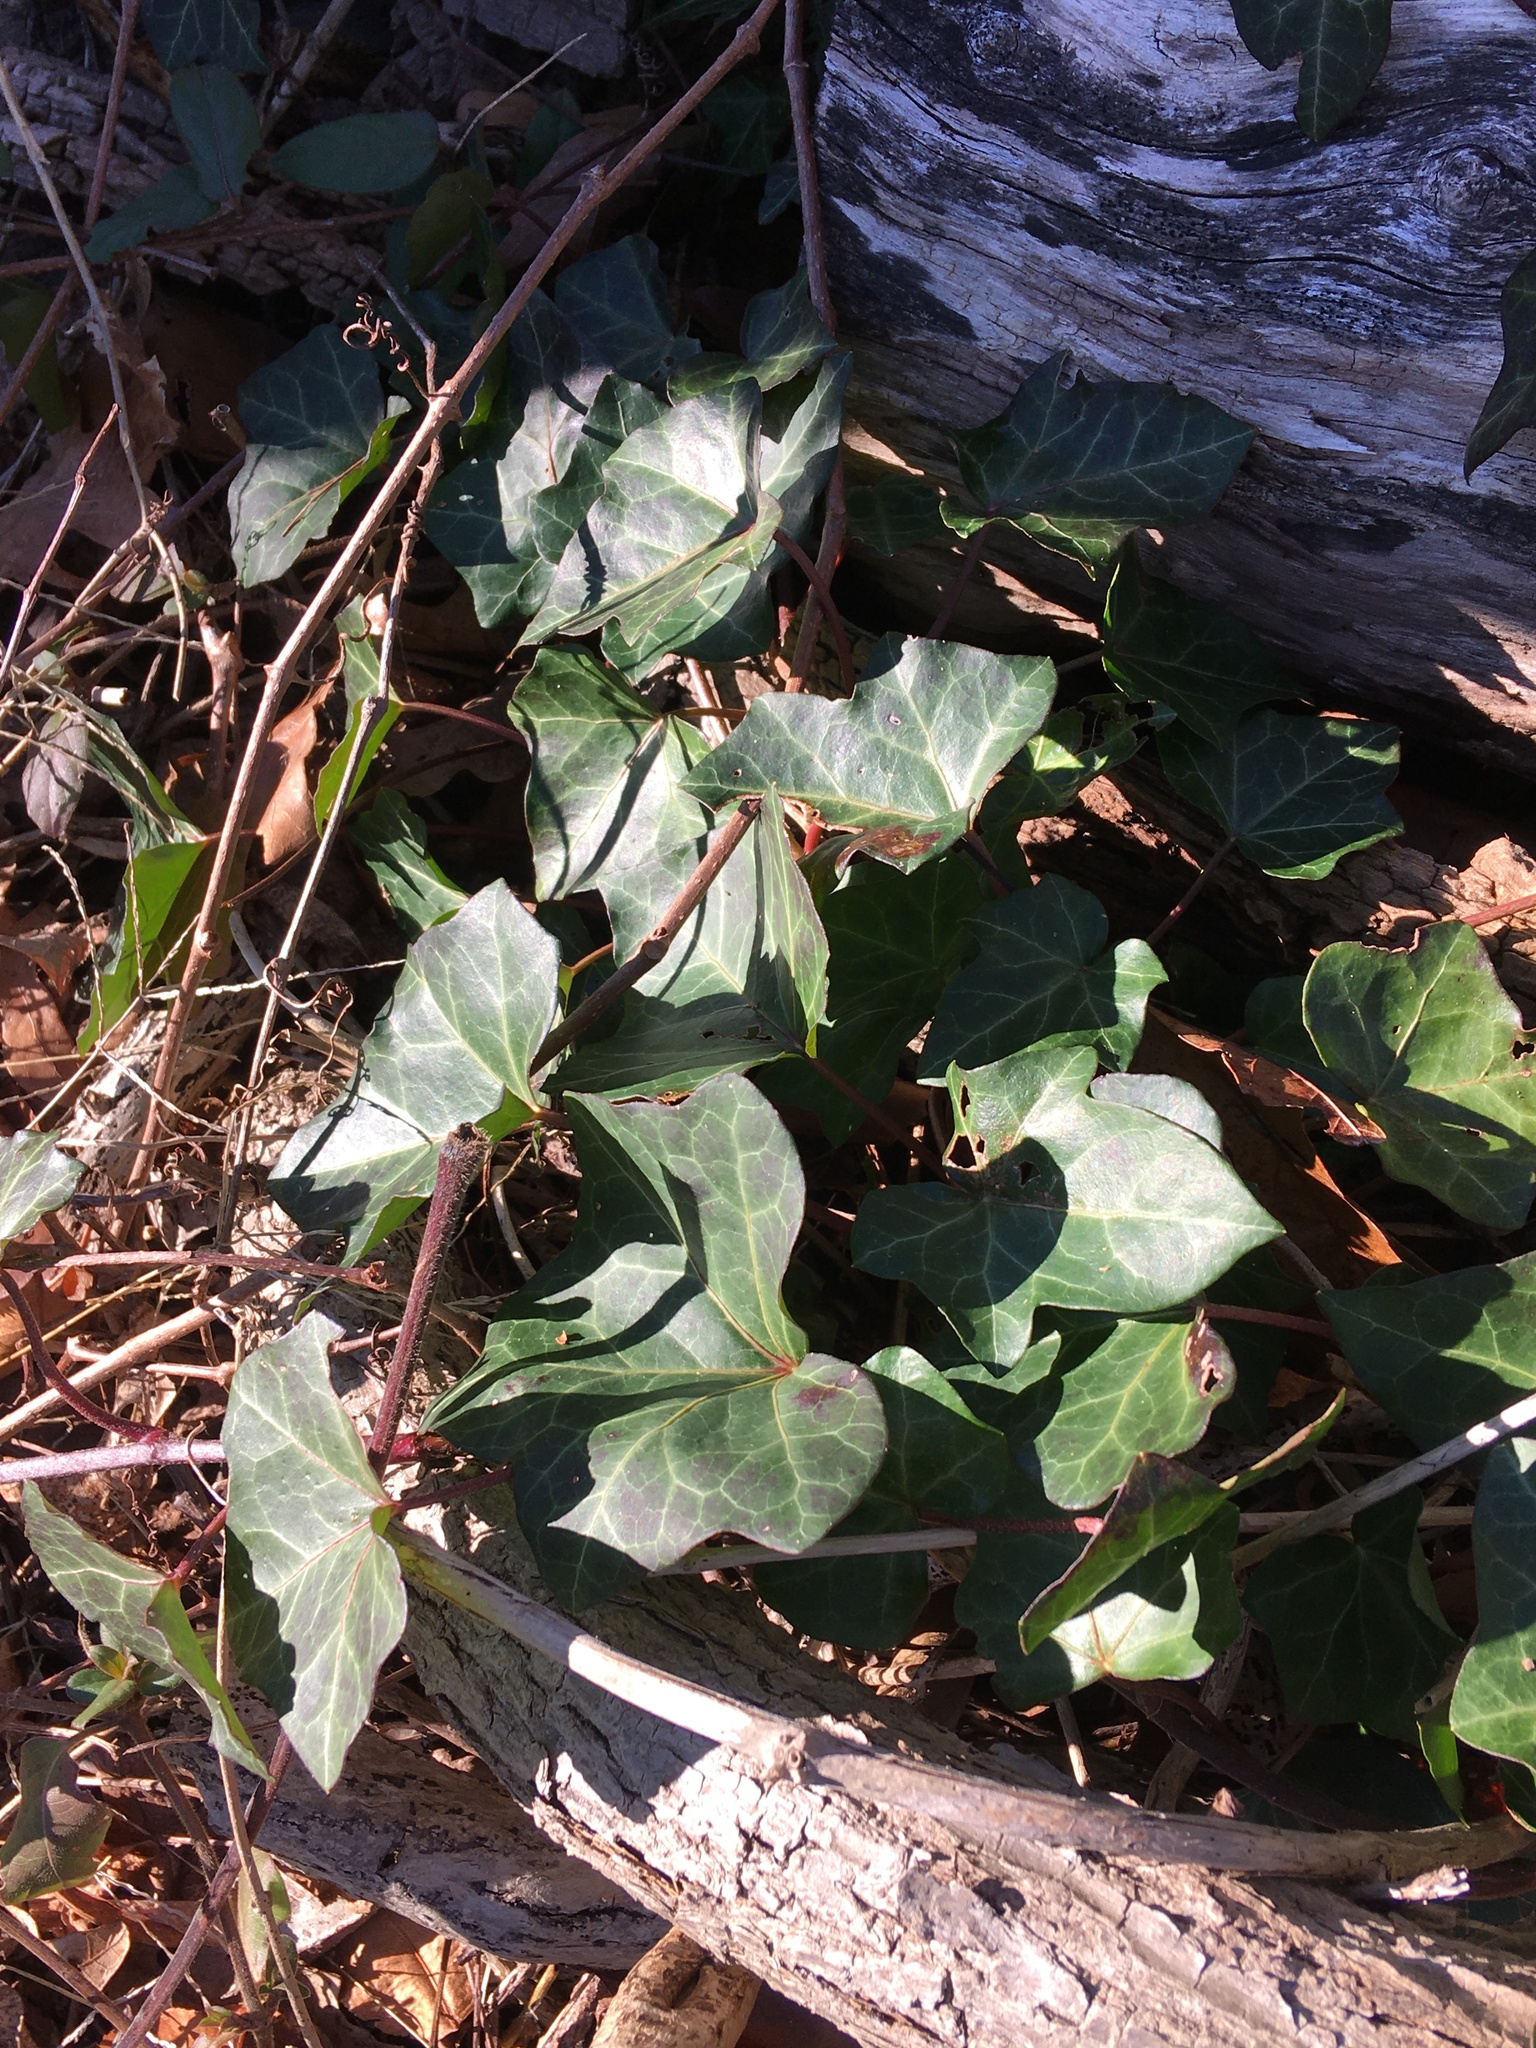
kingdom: Plantae
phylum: Tracheophyta
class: Magnoliopsida
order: Apiales
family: Araliaceae
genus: Hedera
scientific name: Hedera helix
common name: Ivy
